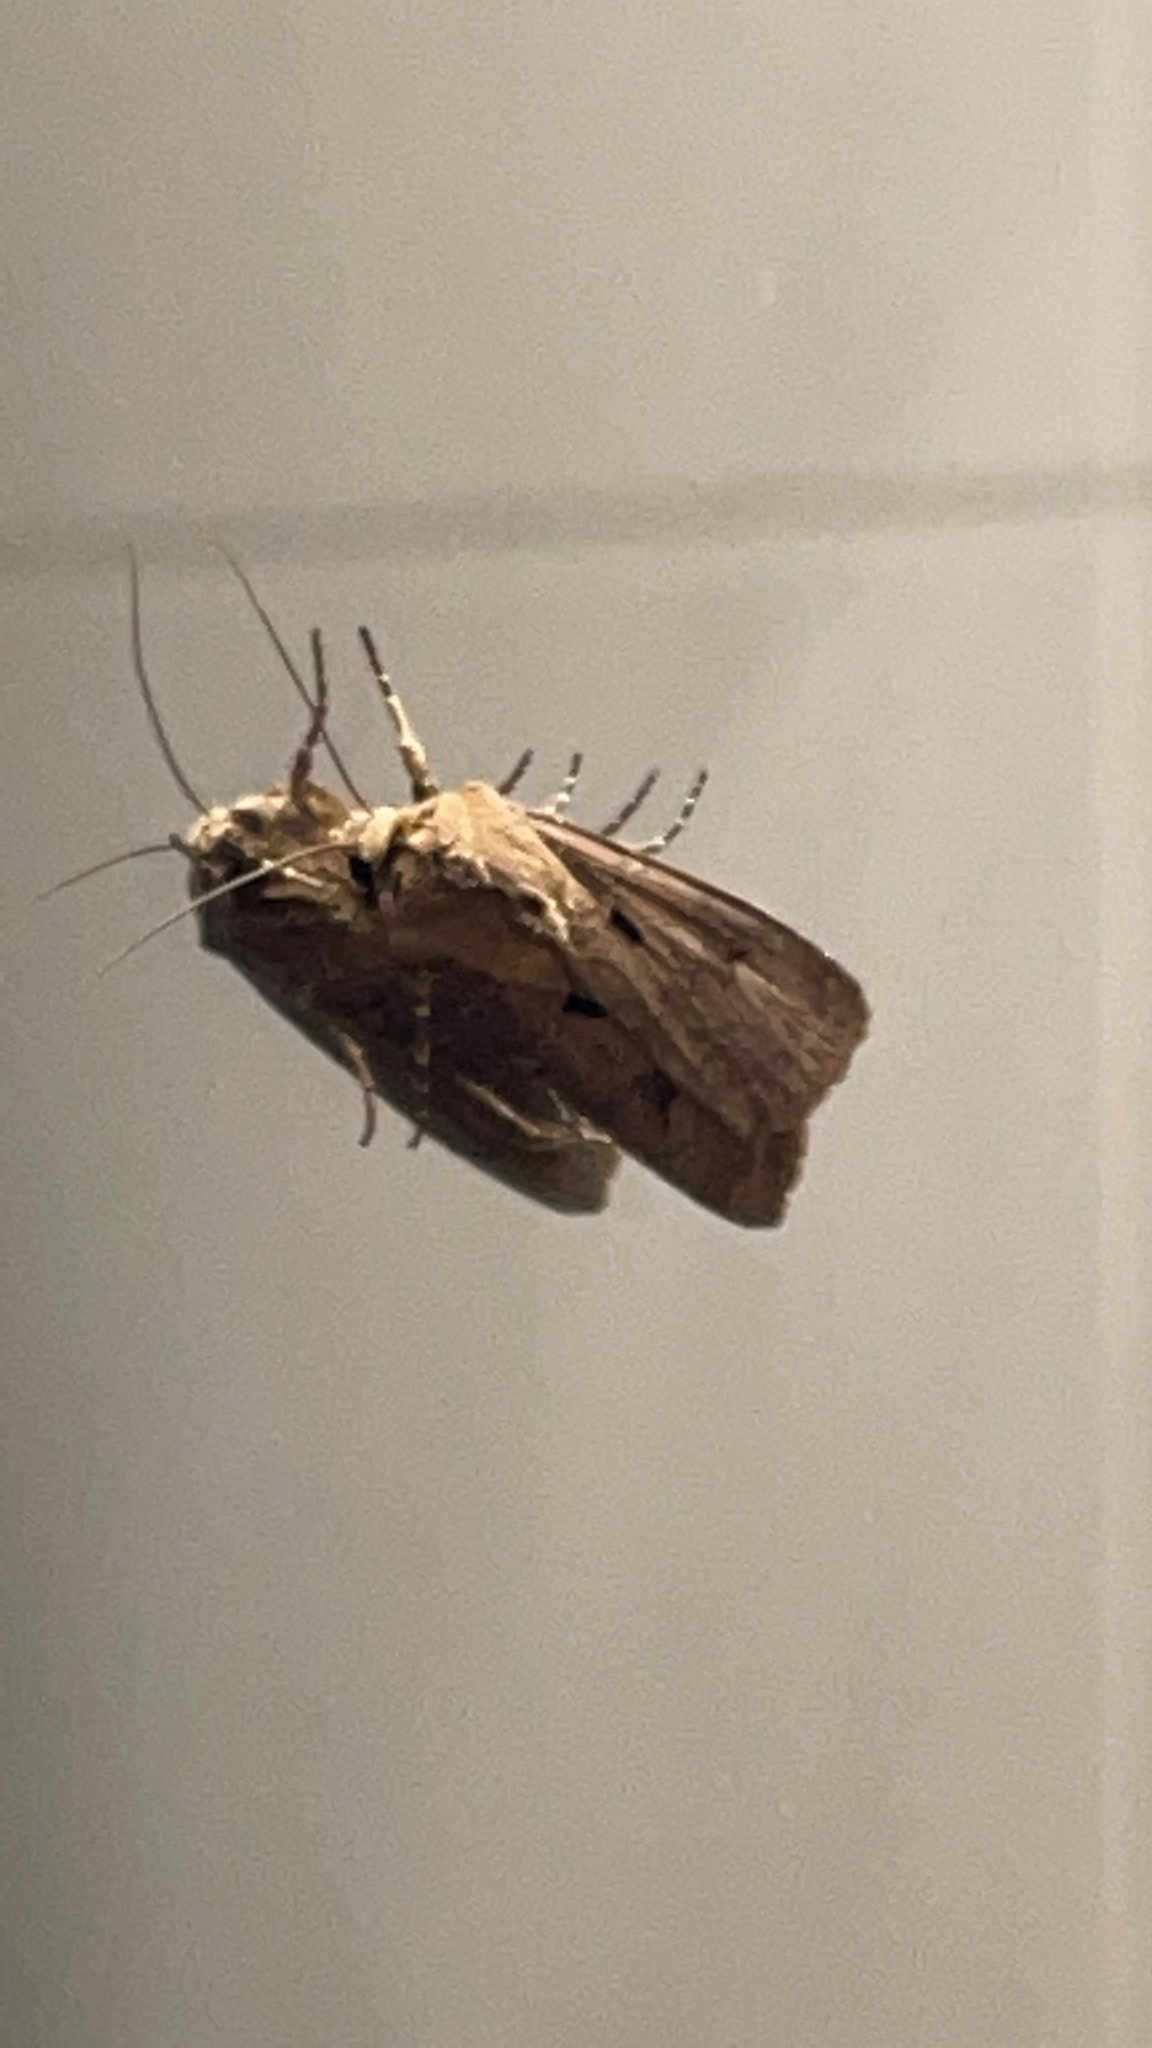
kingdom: Animalia
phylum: Arthropoda
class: Insecta
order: Lepidoptera
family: Noctuidae
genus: Agrotis
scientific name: Agrotis exclamationis
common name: Heart and dart
